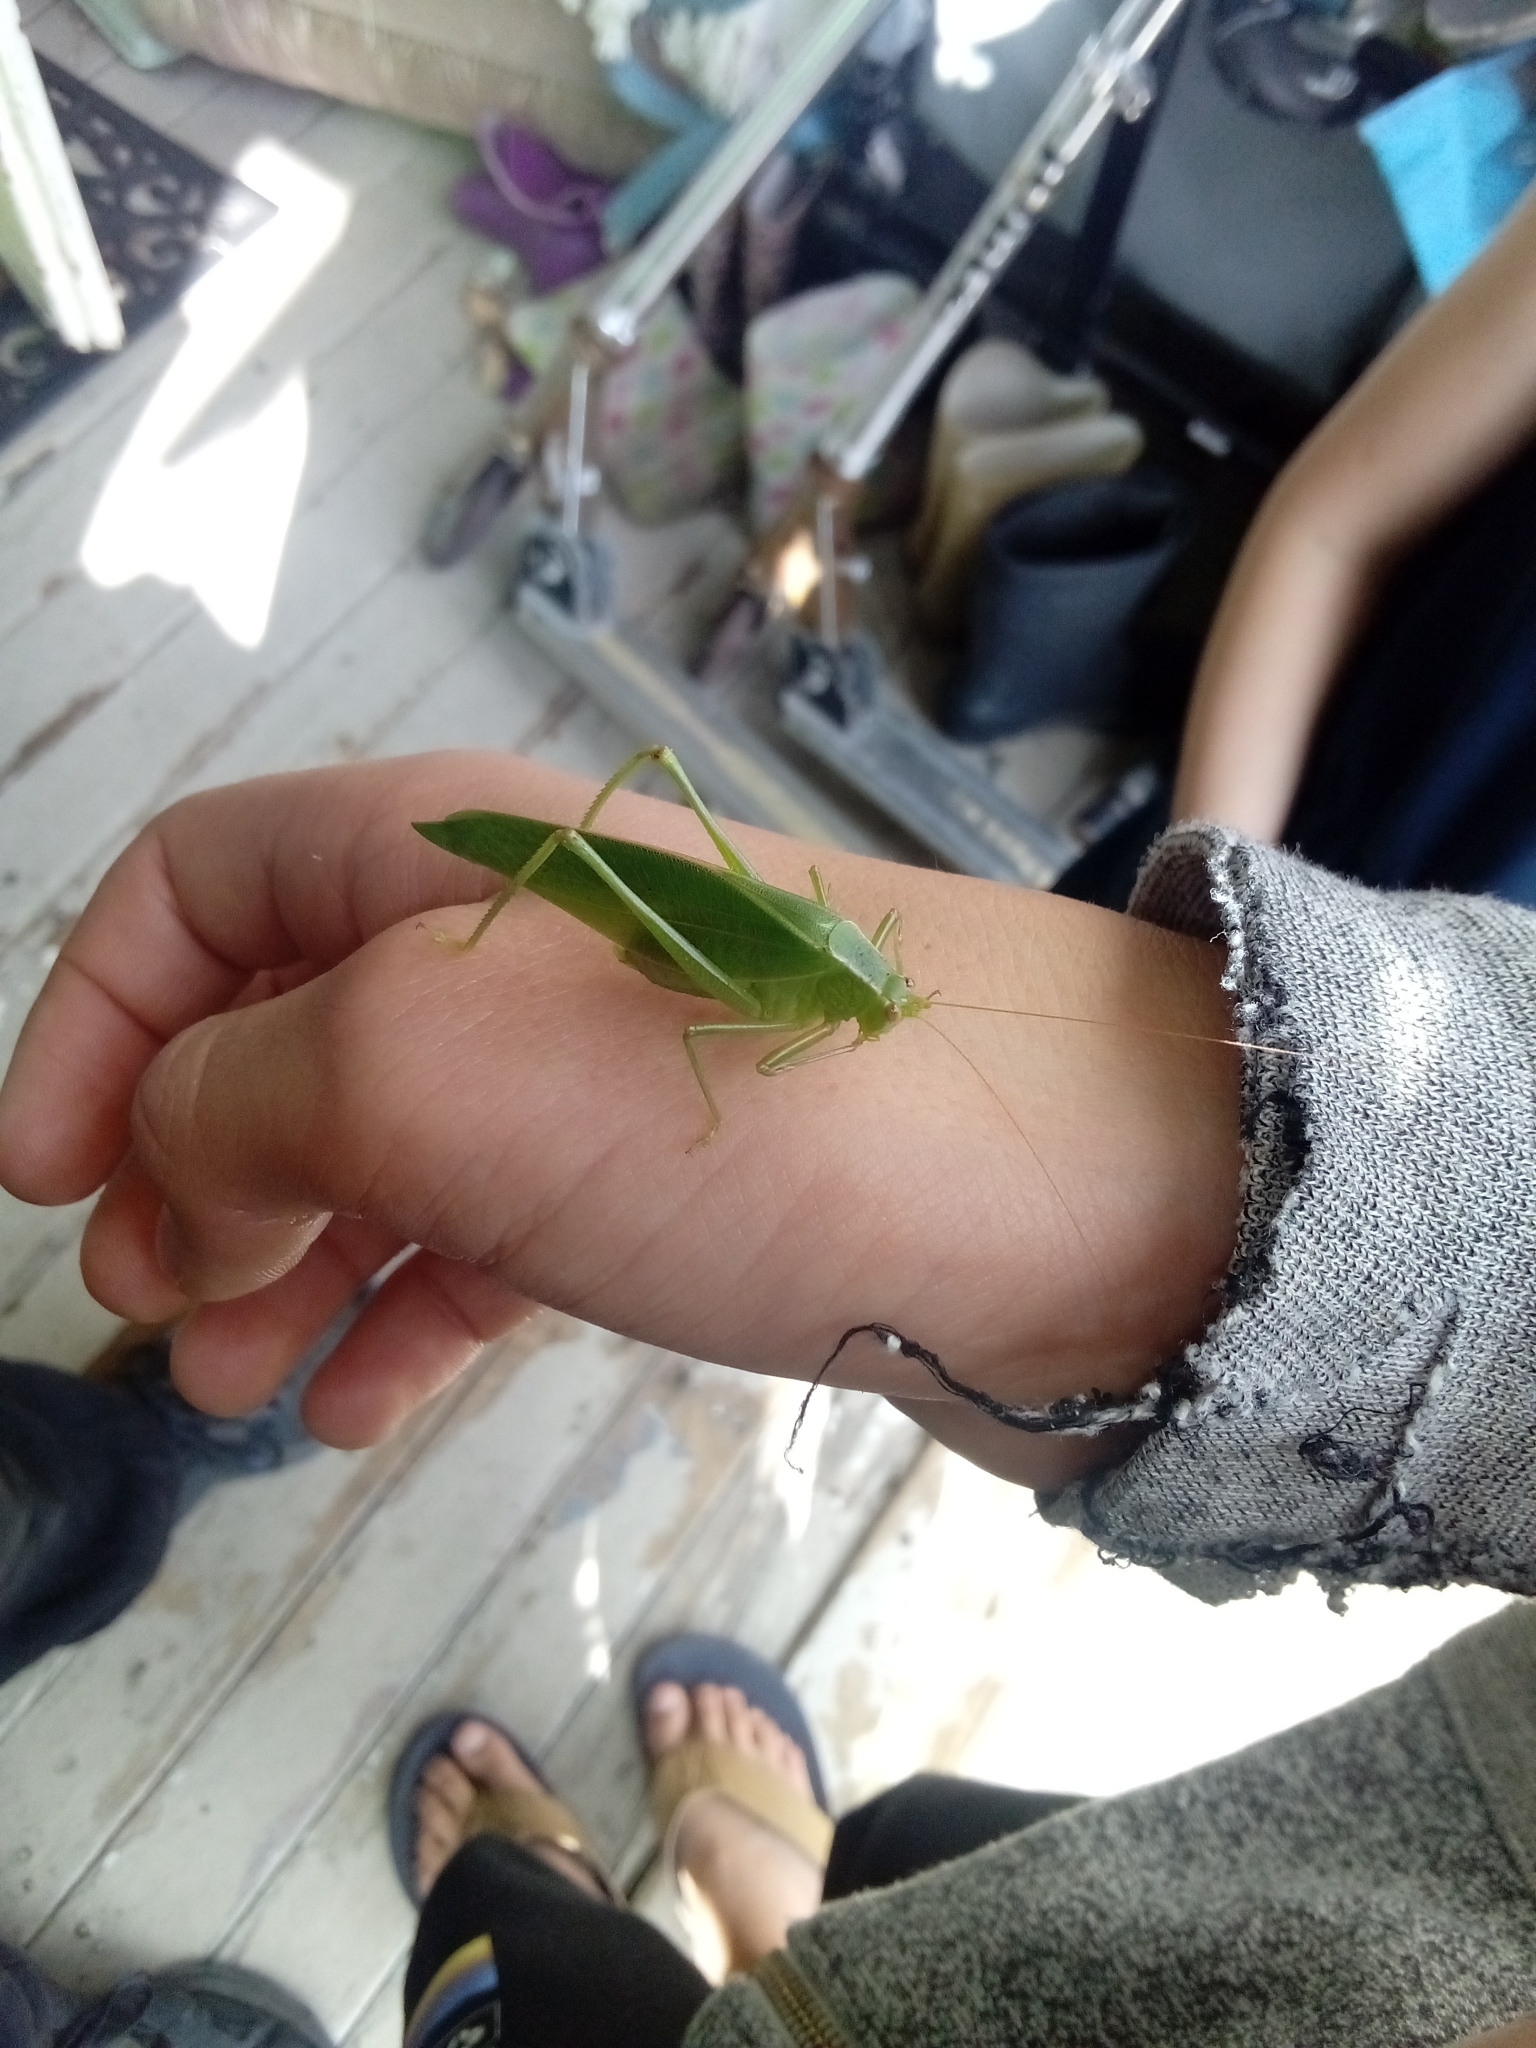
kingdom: Animalia
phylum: Arthropoda
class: Insecta
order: Orthoptera
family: Tettigoniidae
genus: Caedicia
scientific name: Caedicia simplex
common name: Common garden katydid
